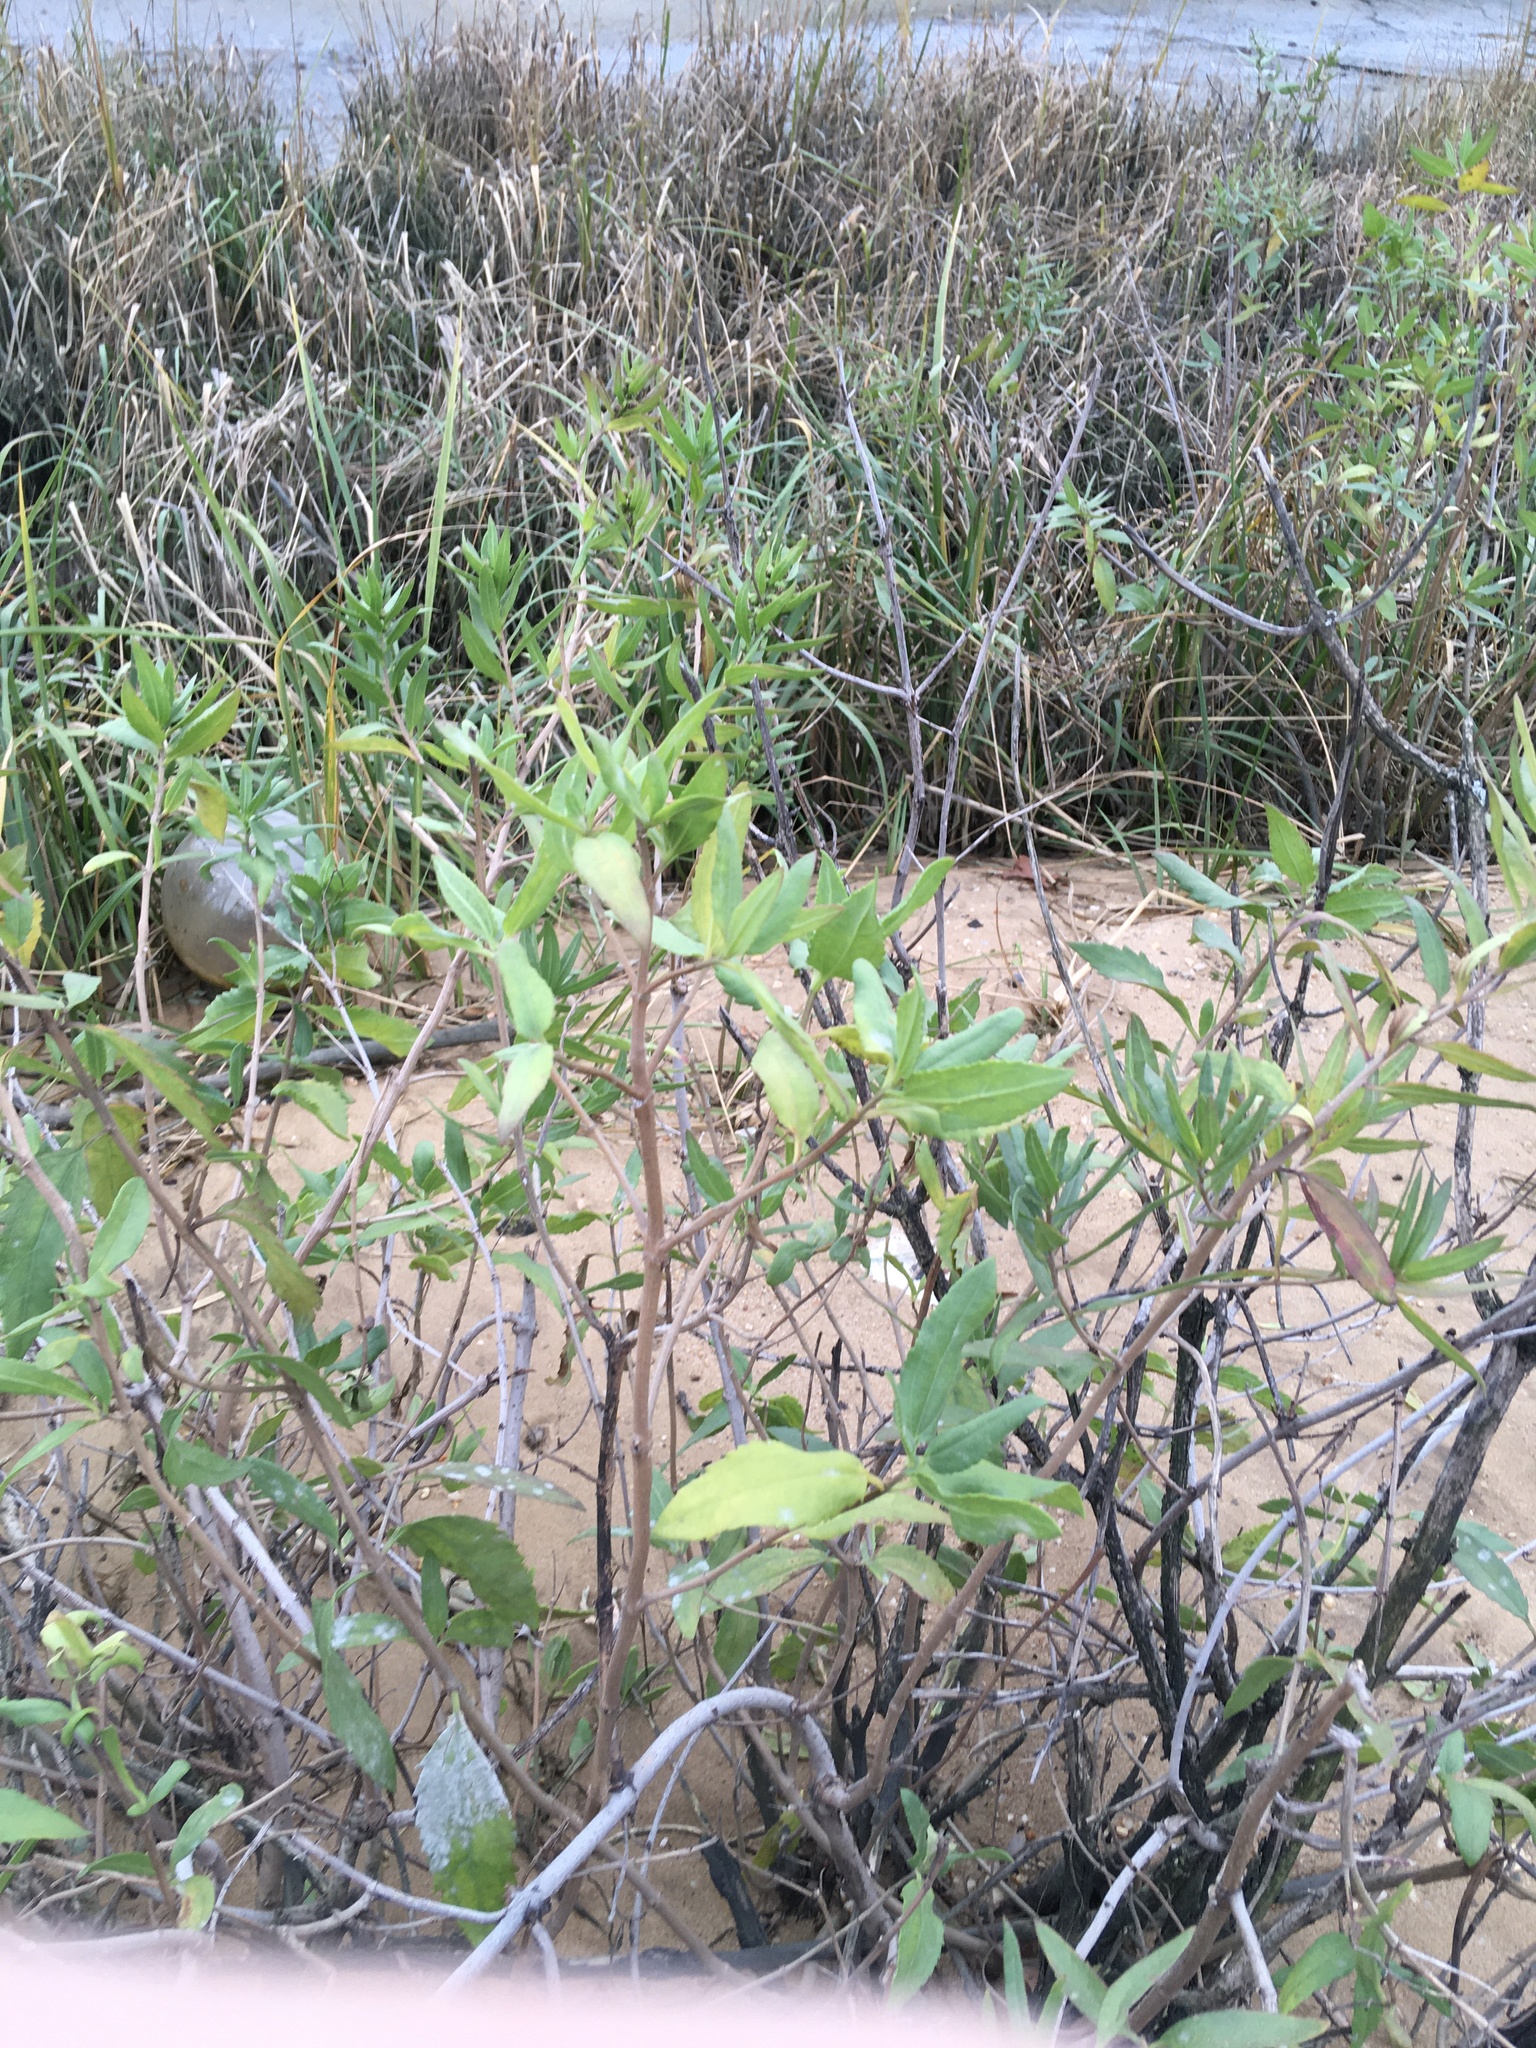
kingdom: Plantae
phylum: Tracheophyta
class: Magnoliopsida
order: Asterales
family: Asteraceae
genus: Iva
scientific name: Iva frutescens
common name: Big-leaved marsh-elder
